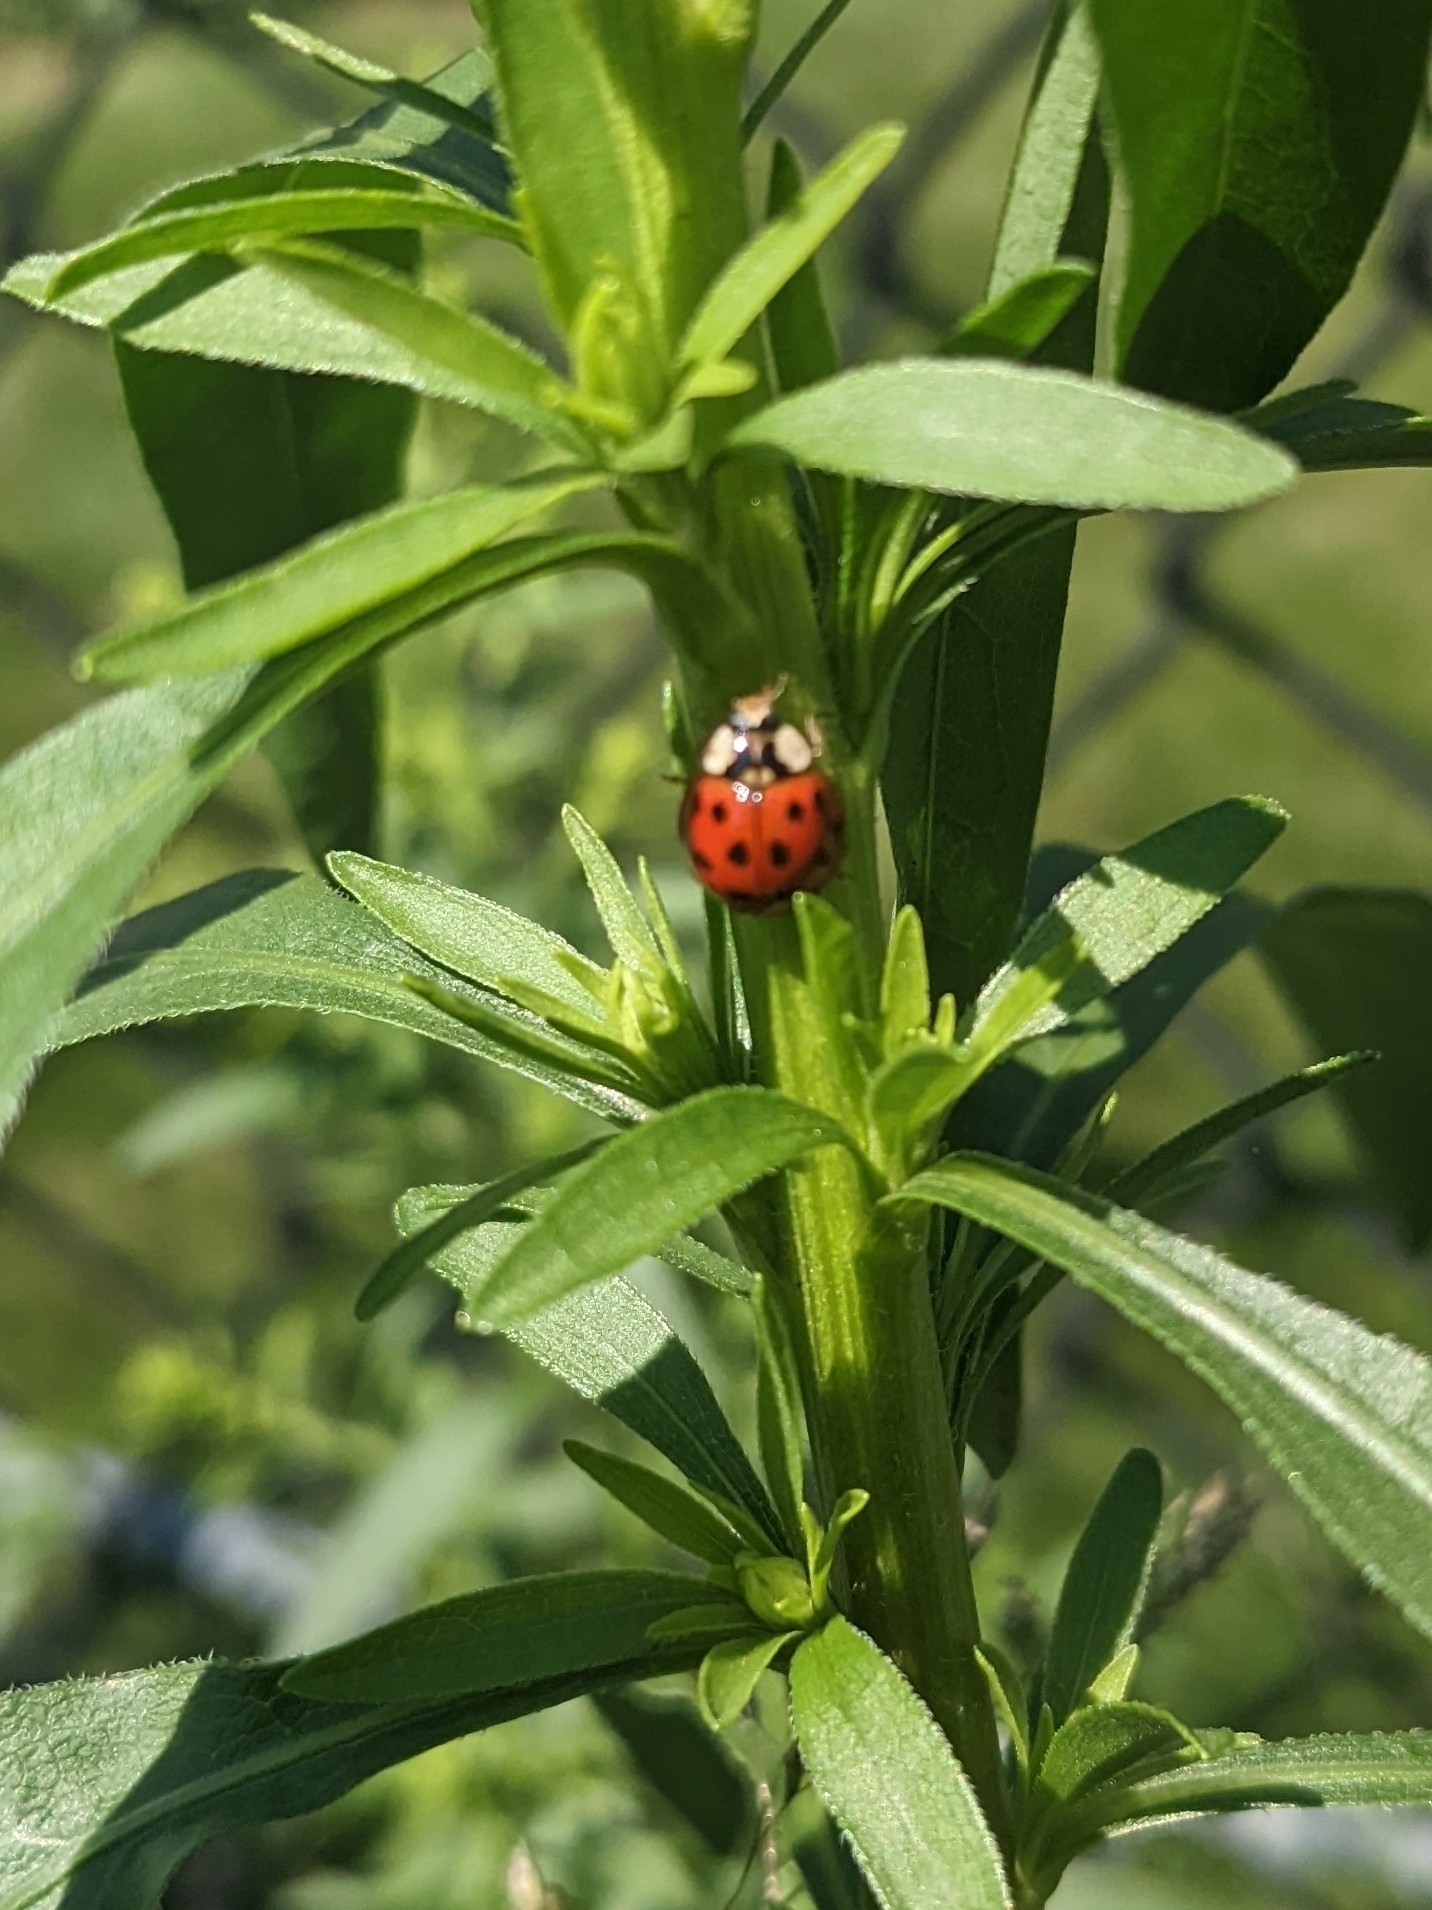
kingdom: Animalia
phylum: Arthropoda
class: Insecta
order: Coleoptera
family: Coccinellidae
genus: Harmonia
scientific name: Harmonia axyridis
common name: Harlequin ladybird
